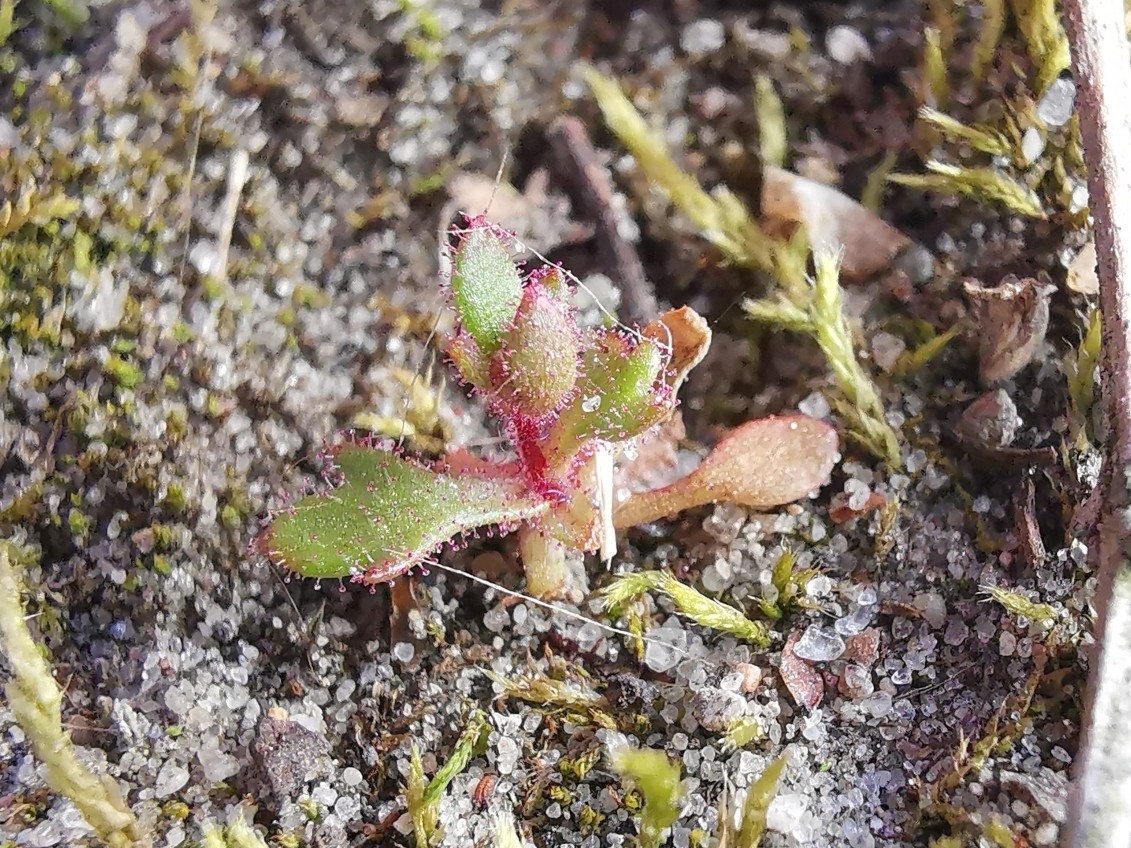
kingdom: Plantae
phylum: Tracheophyta
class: Magnoliopsida
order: Saxifragales
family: Saxifragaceae
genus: Saxifraga
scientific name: Saxifraga tridactylites
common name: Rue-leaved saxifrage
